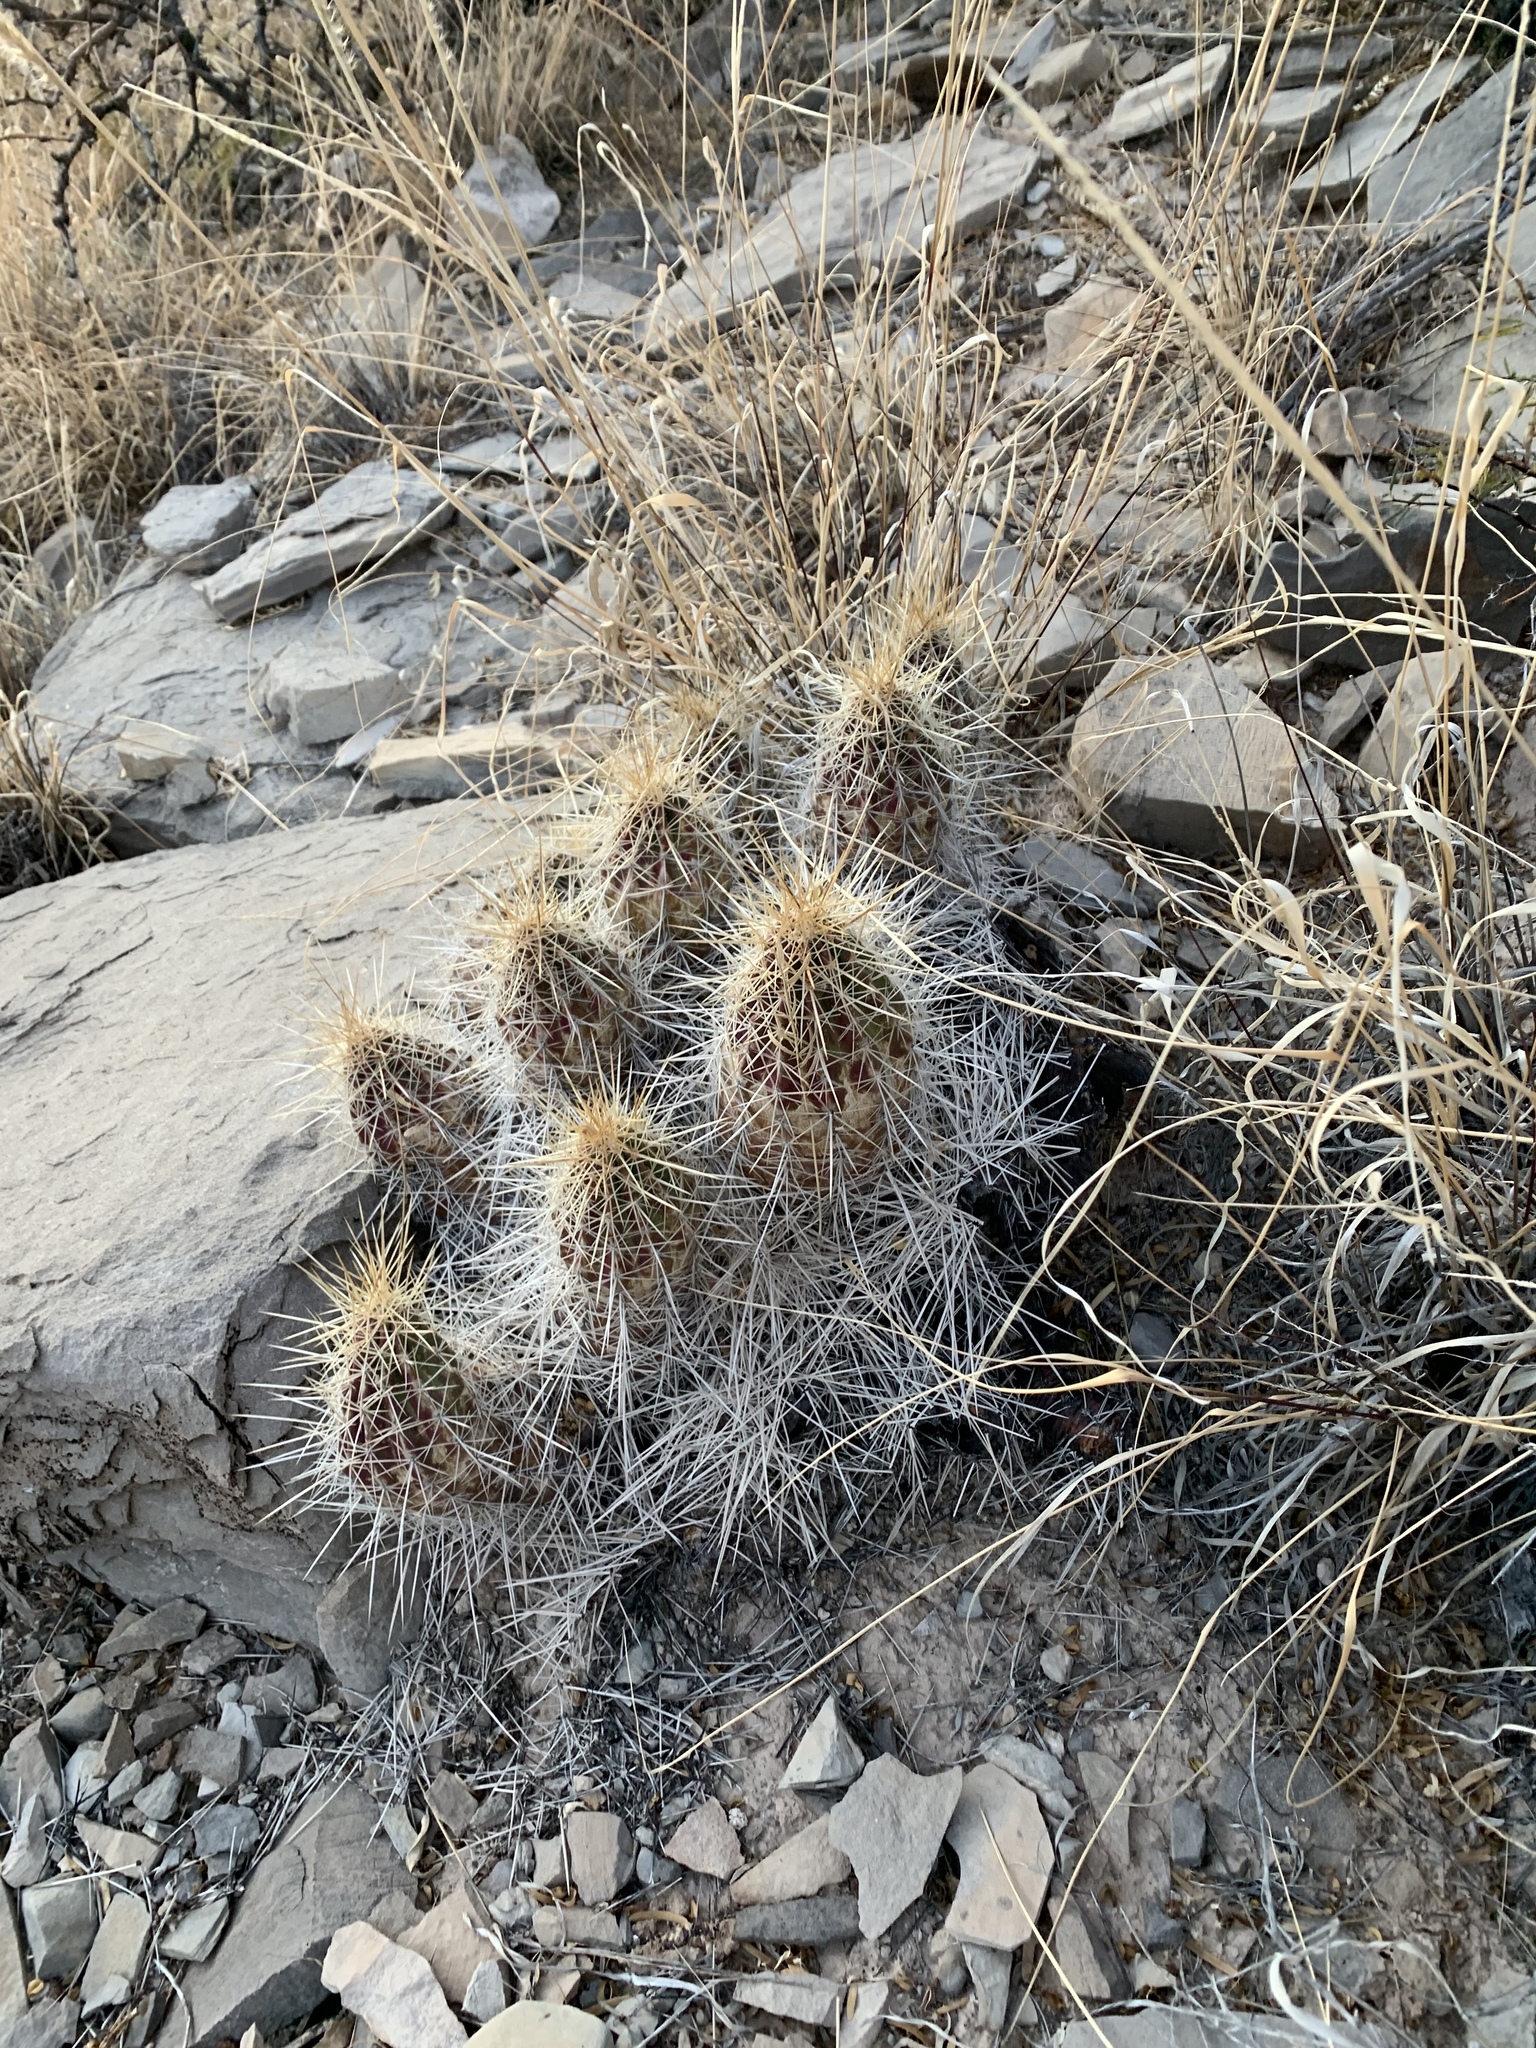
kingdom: Plantae
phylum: Tracheophyta
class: Magnoliopsida
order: Caryophyllales
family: Cactaceae
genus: Echinocereus
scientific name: Echinocereus stramineus
